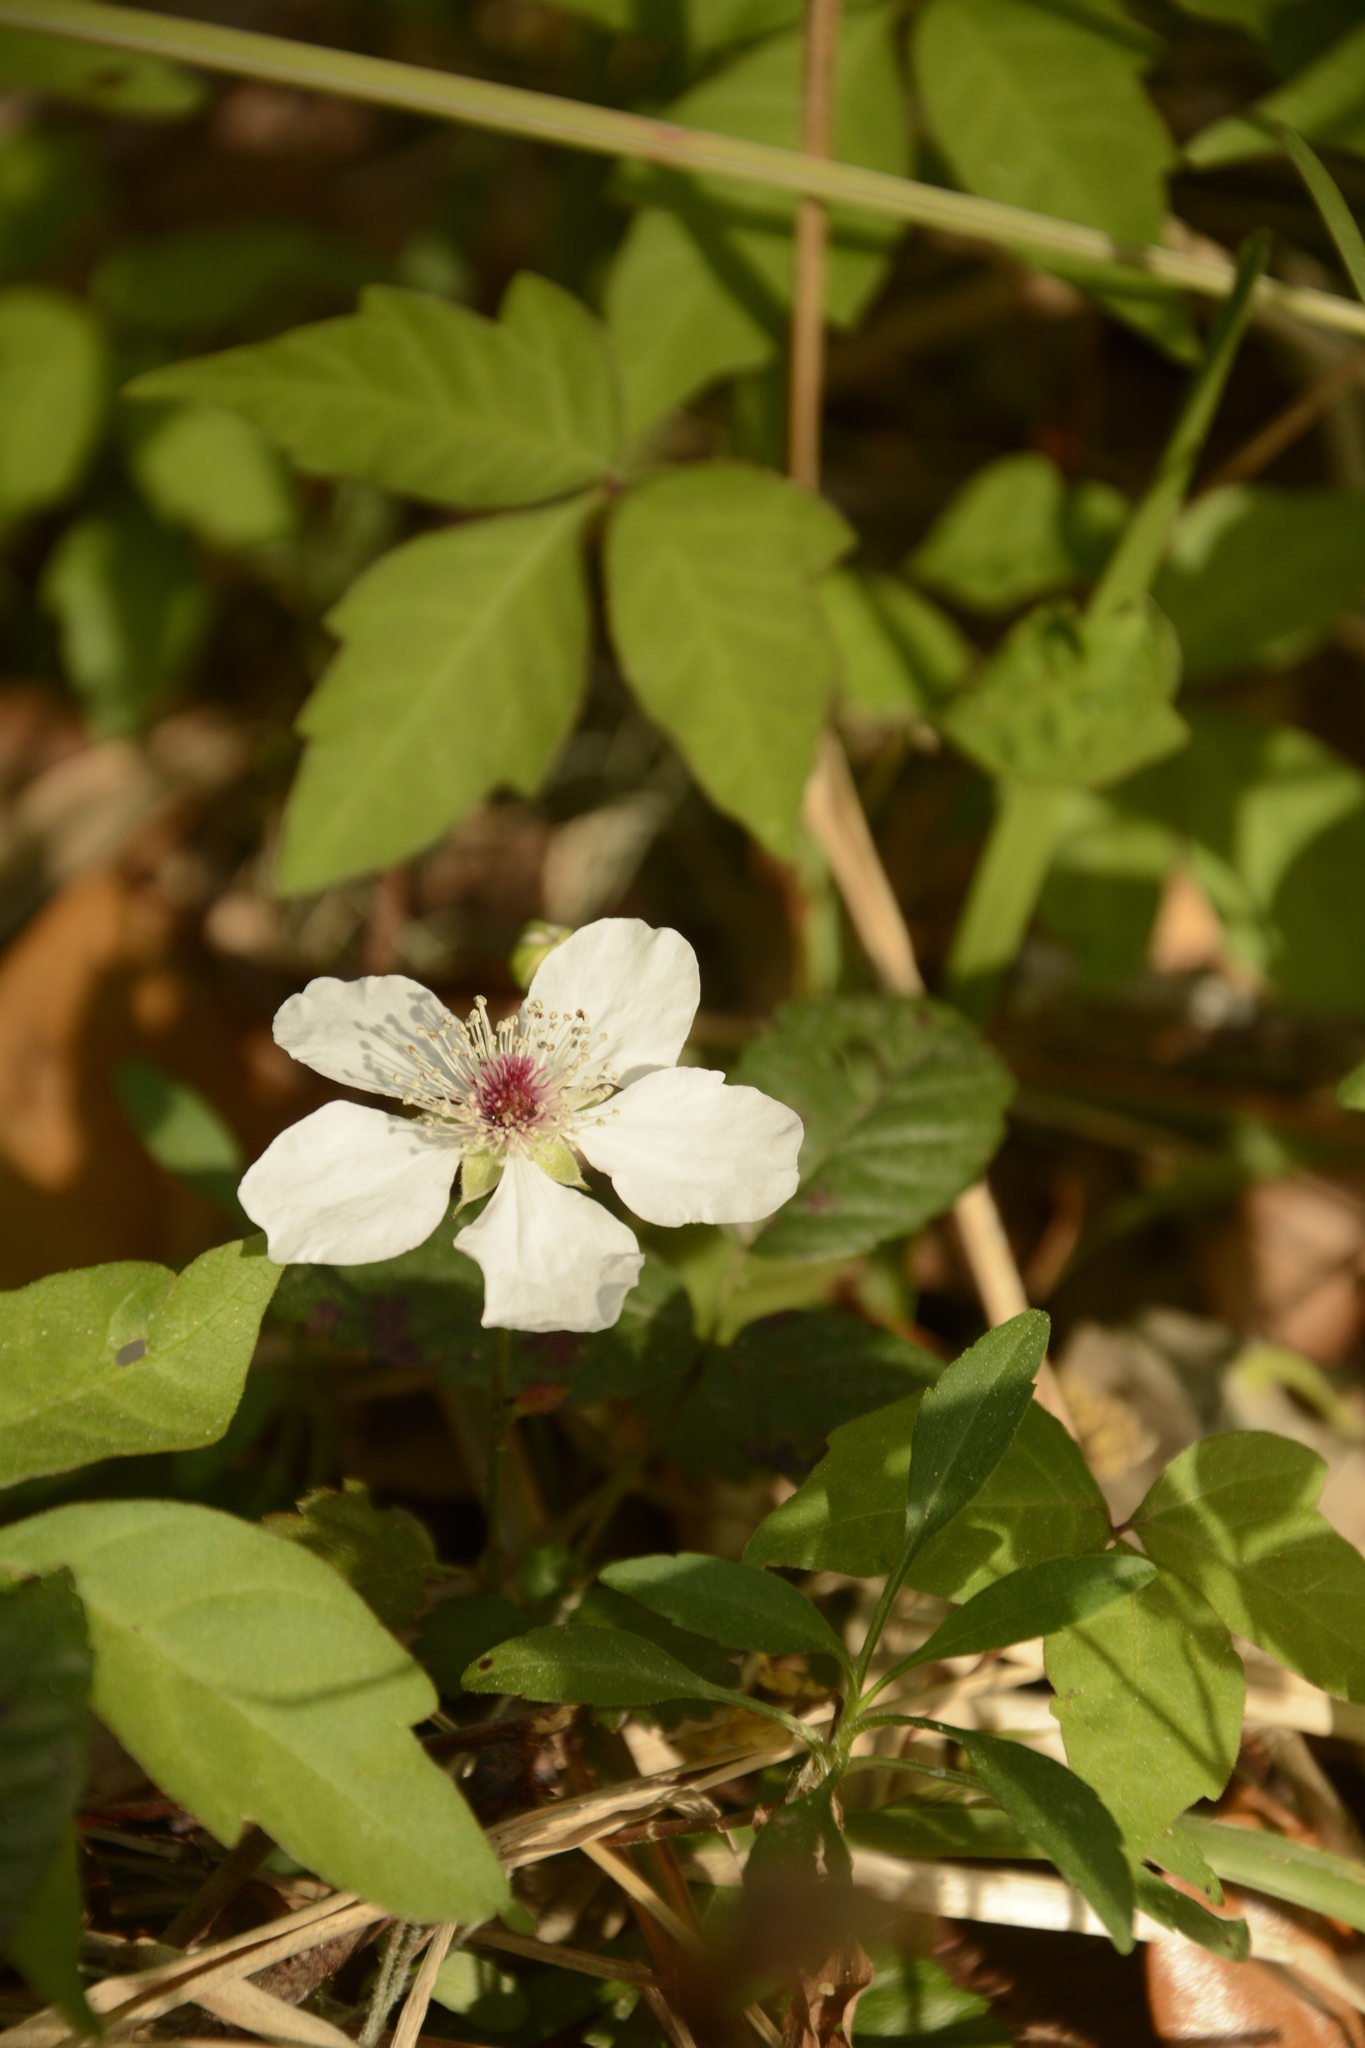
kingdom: Plantae
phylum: Tracheophyta
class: Magnoliopsida
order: Rosales
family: Rosaceae
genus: Rubus
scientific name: Rubus trivialis
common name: Southern dewberry
